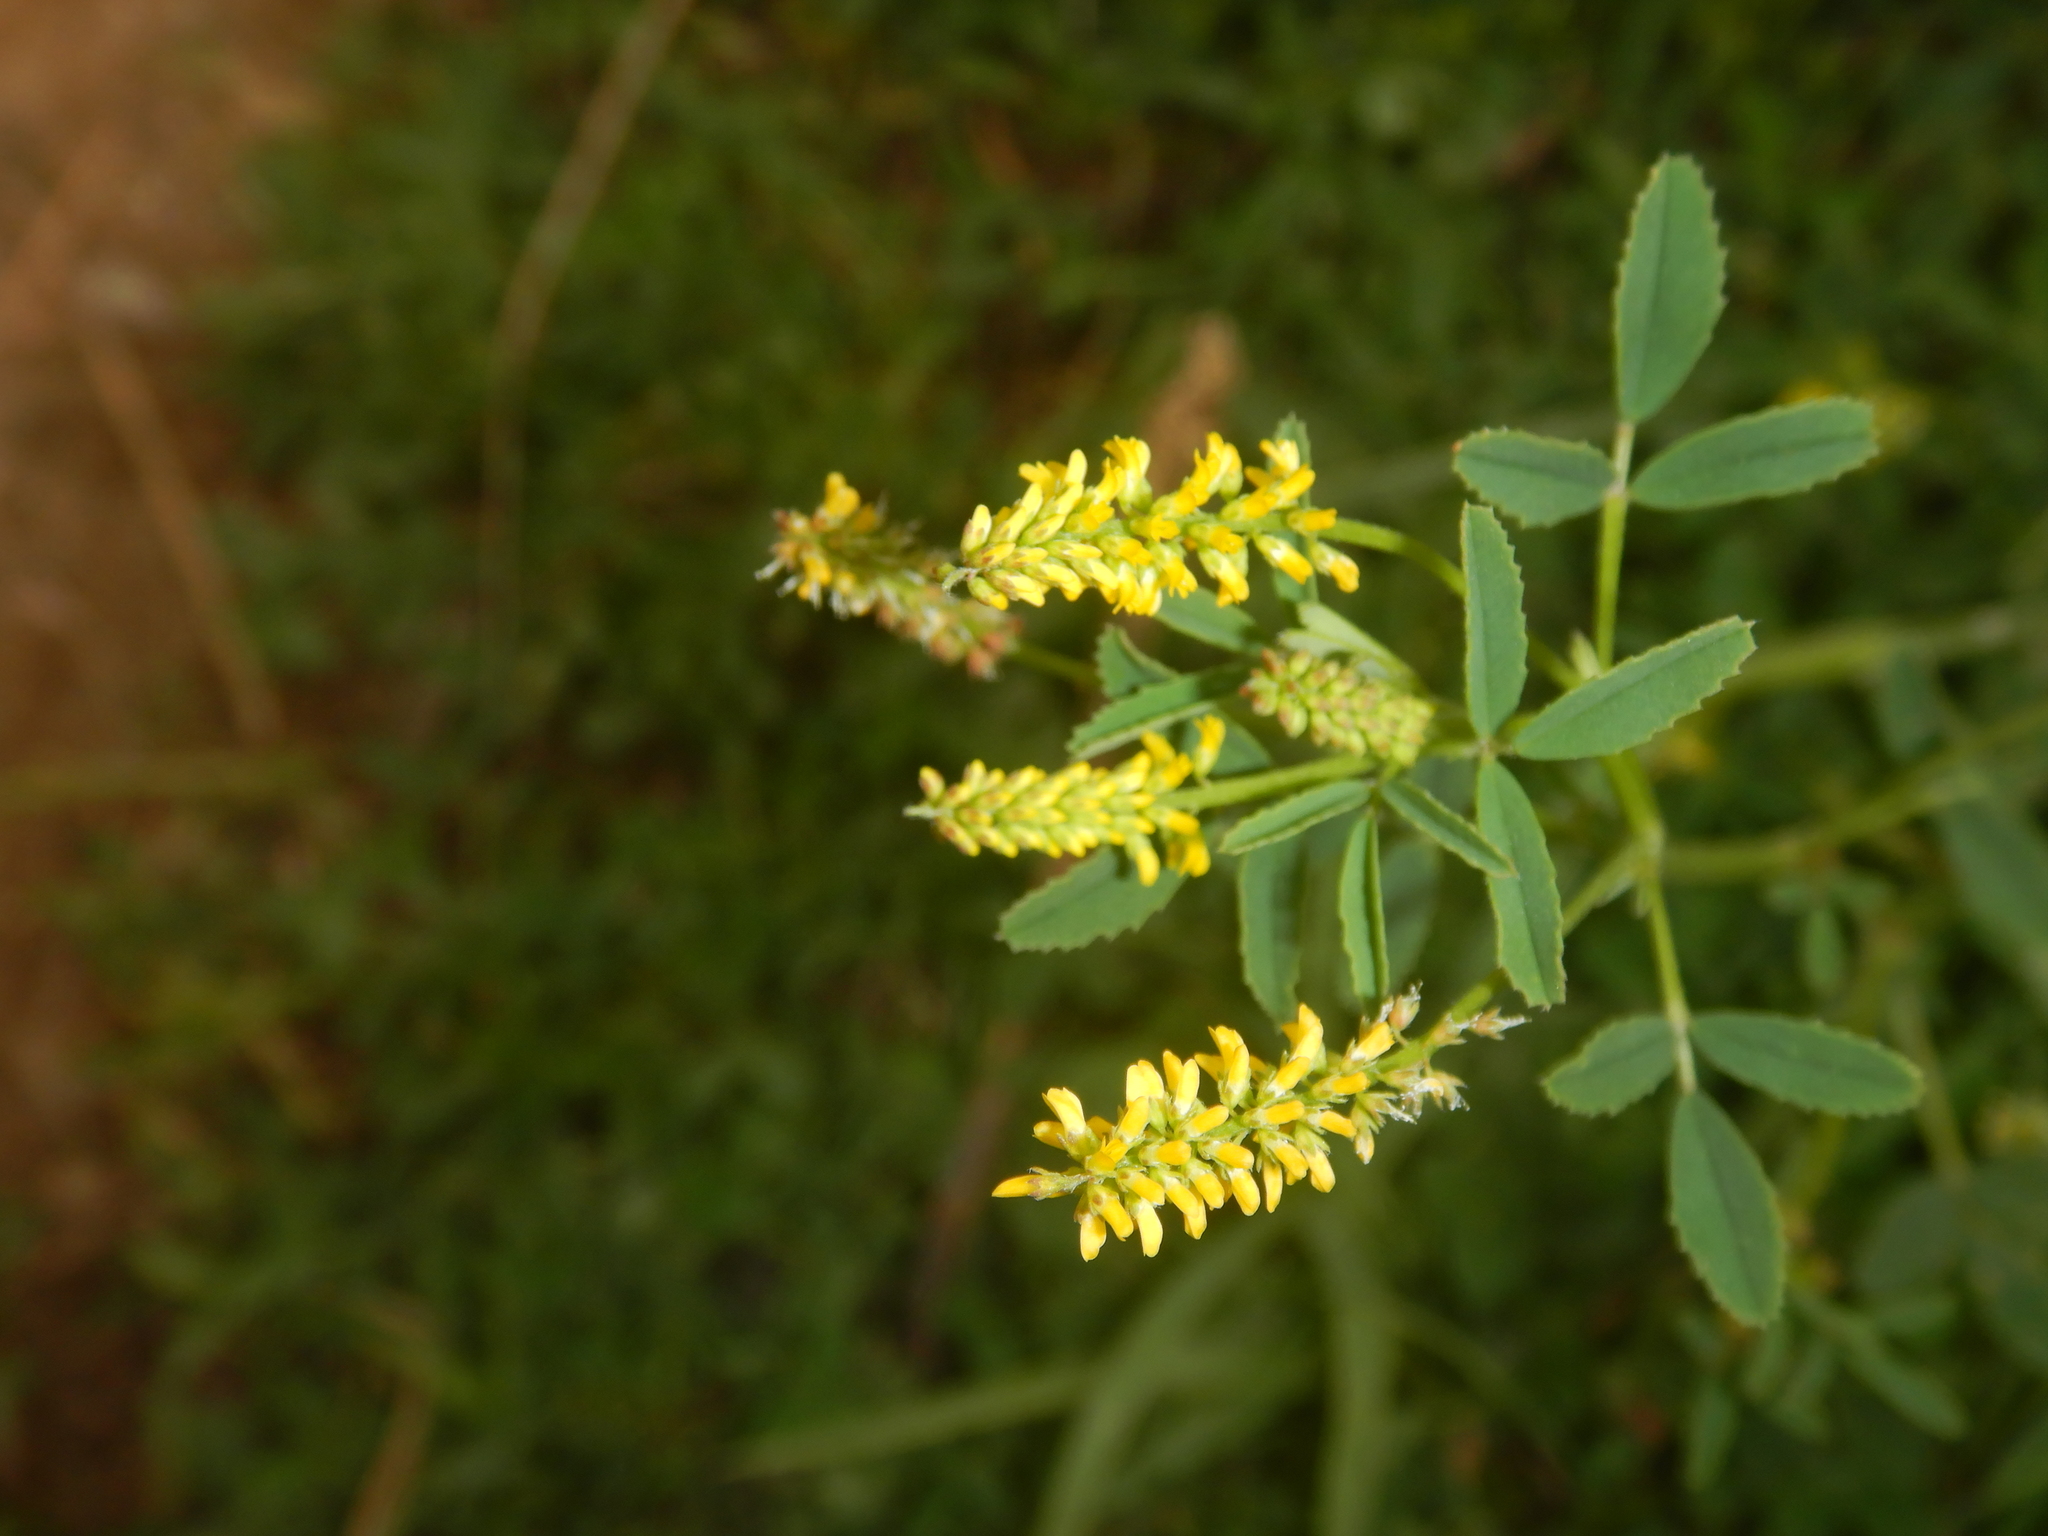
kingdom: Plantae
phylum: Tracheophyta
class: Magnoliopsida
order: Fabales
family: Fabaceae
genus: Melilotus
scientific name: Melilotus indicus
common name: Small melilot
